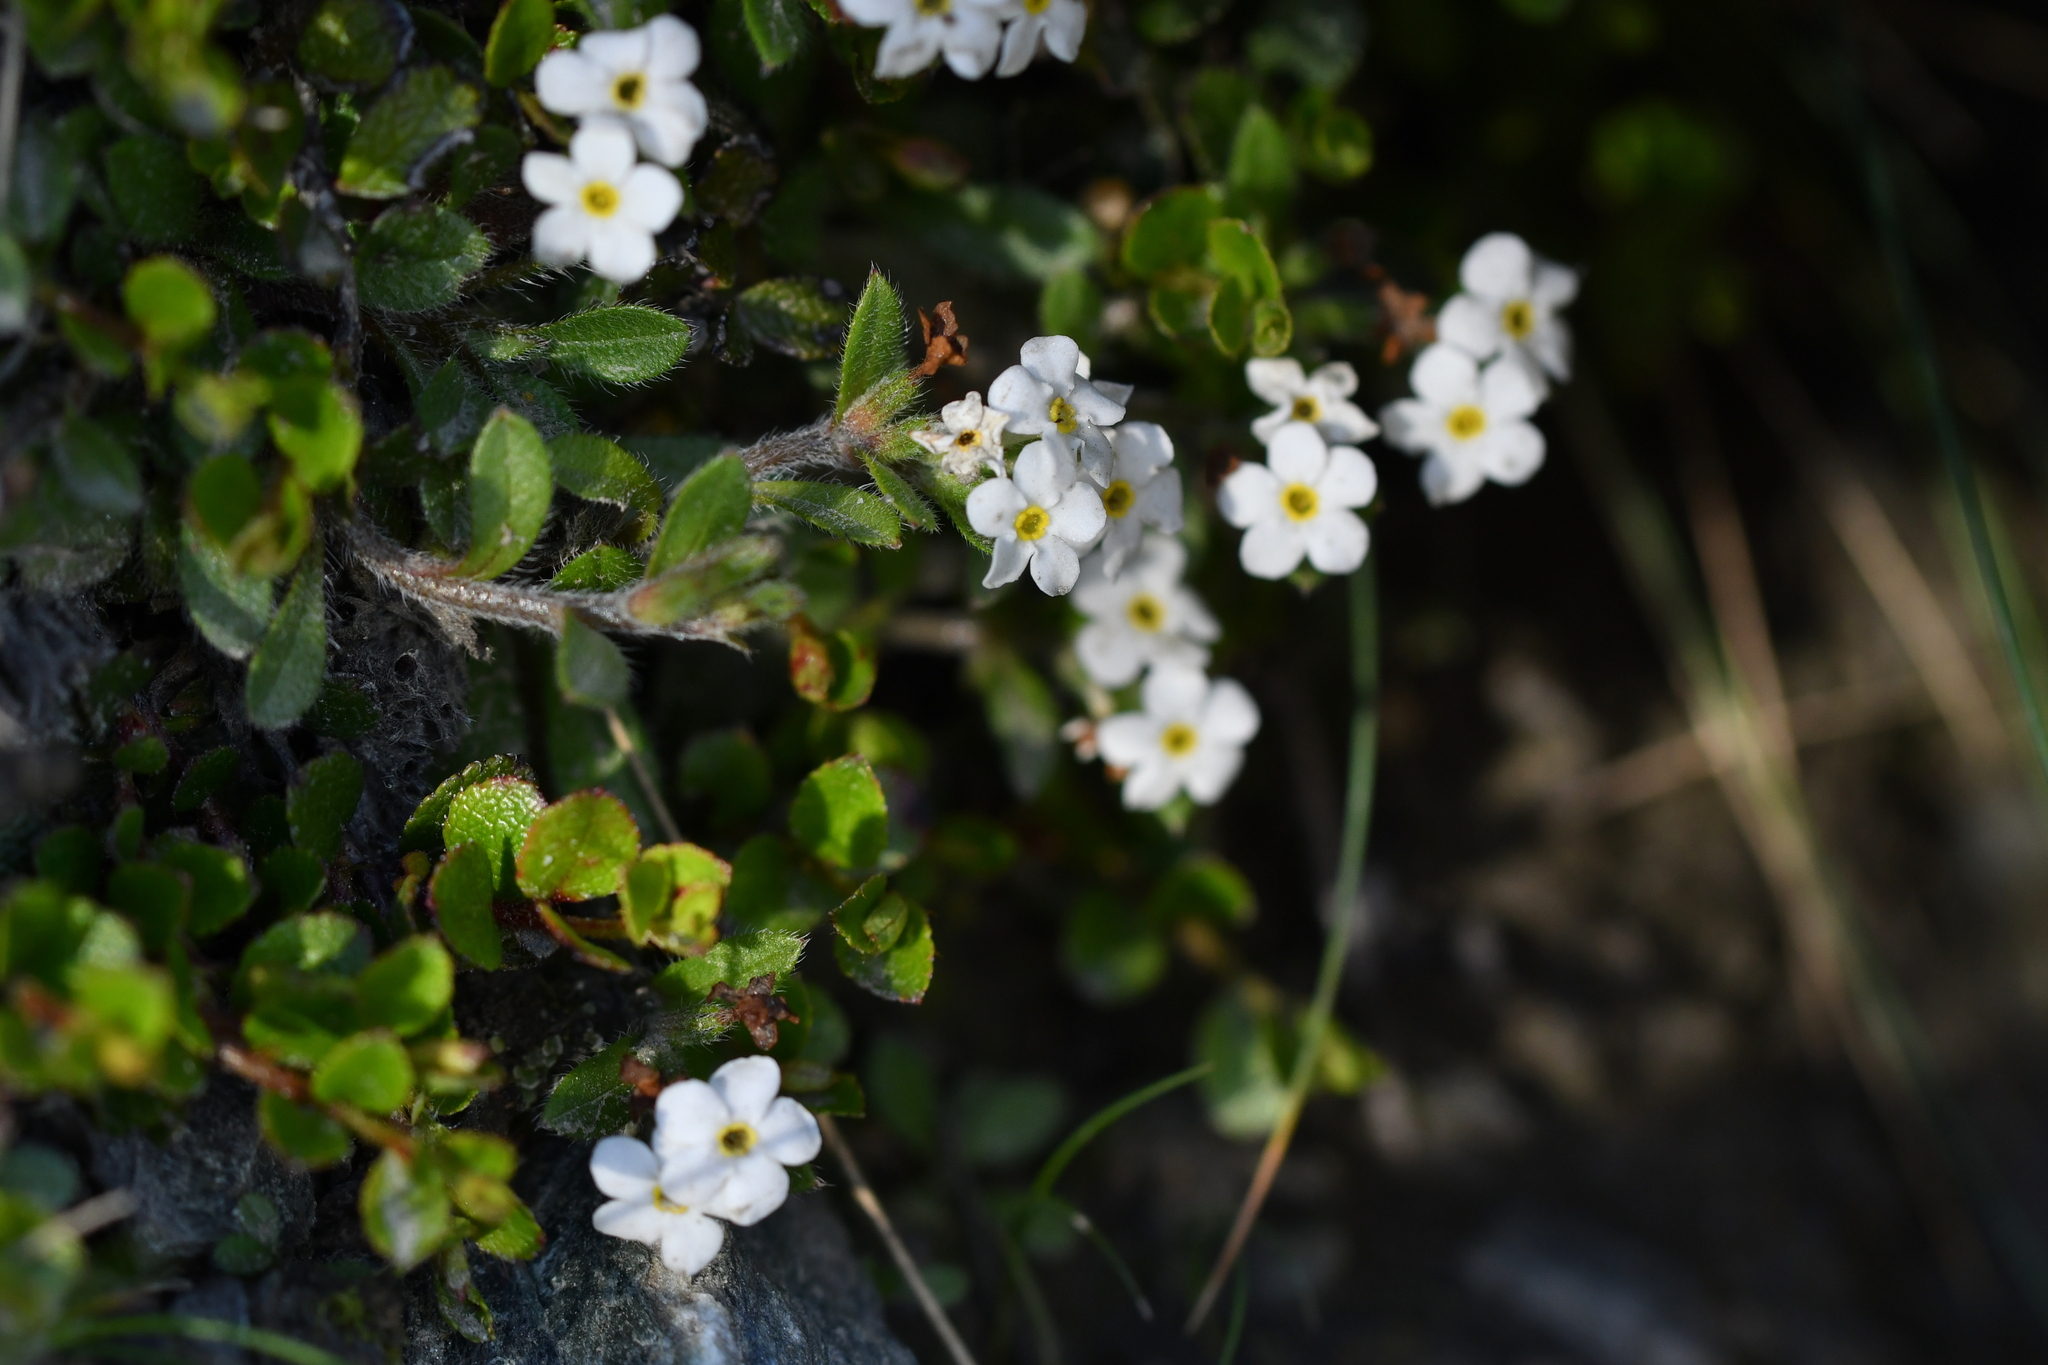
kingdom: Plantae
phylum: Tracheophyta
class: Magnoliopsida
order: Boraginales
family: Boraginaceae
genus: Myosotis
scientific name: Myosotis lyallii
